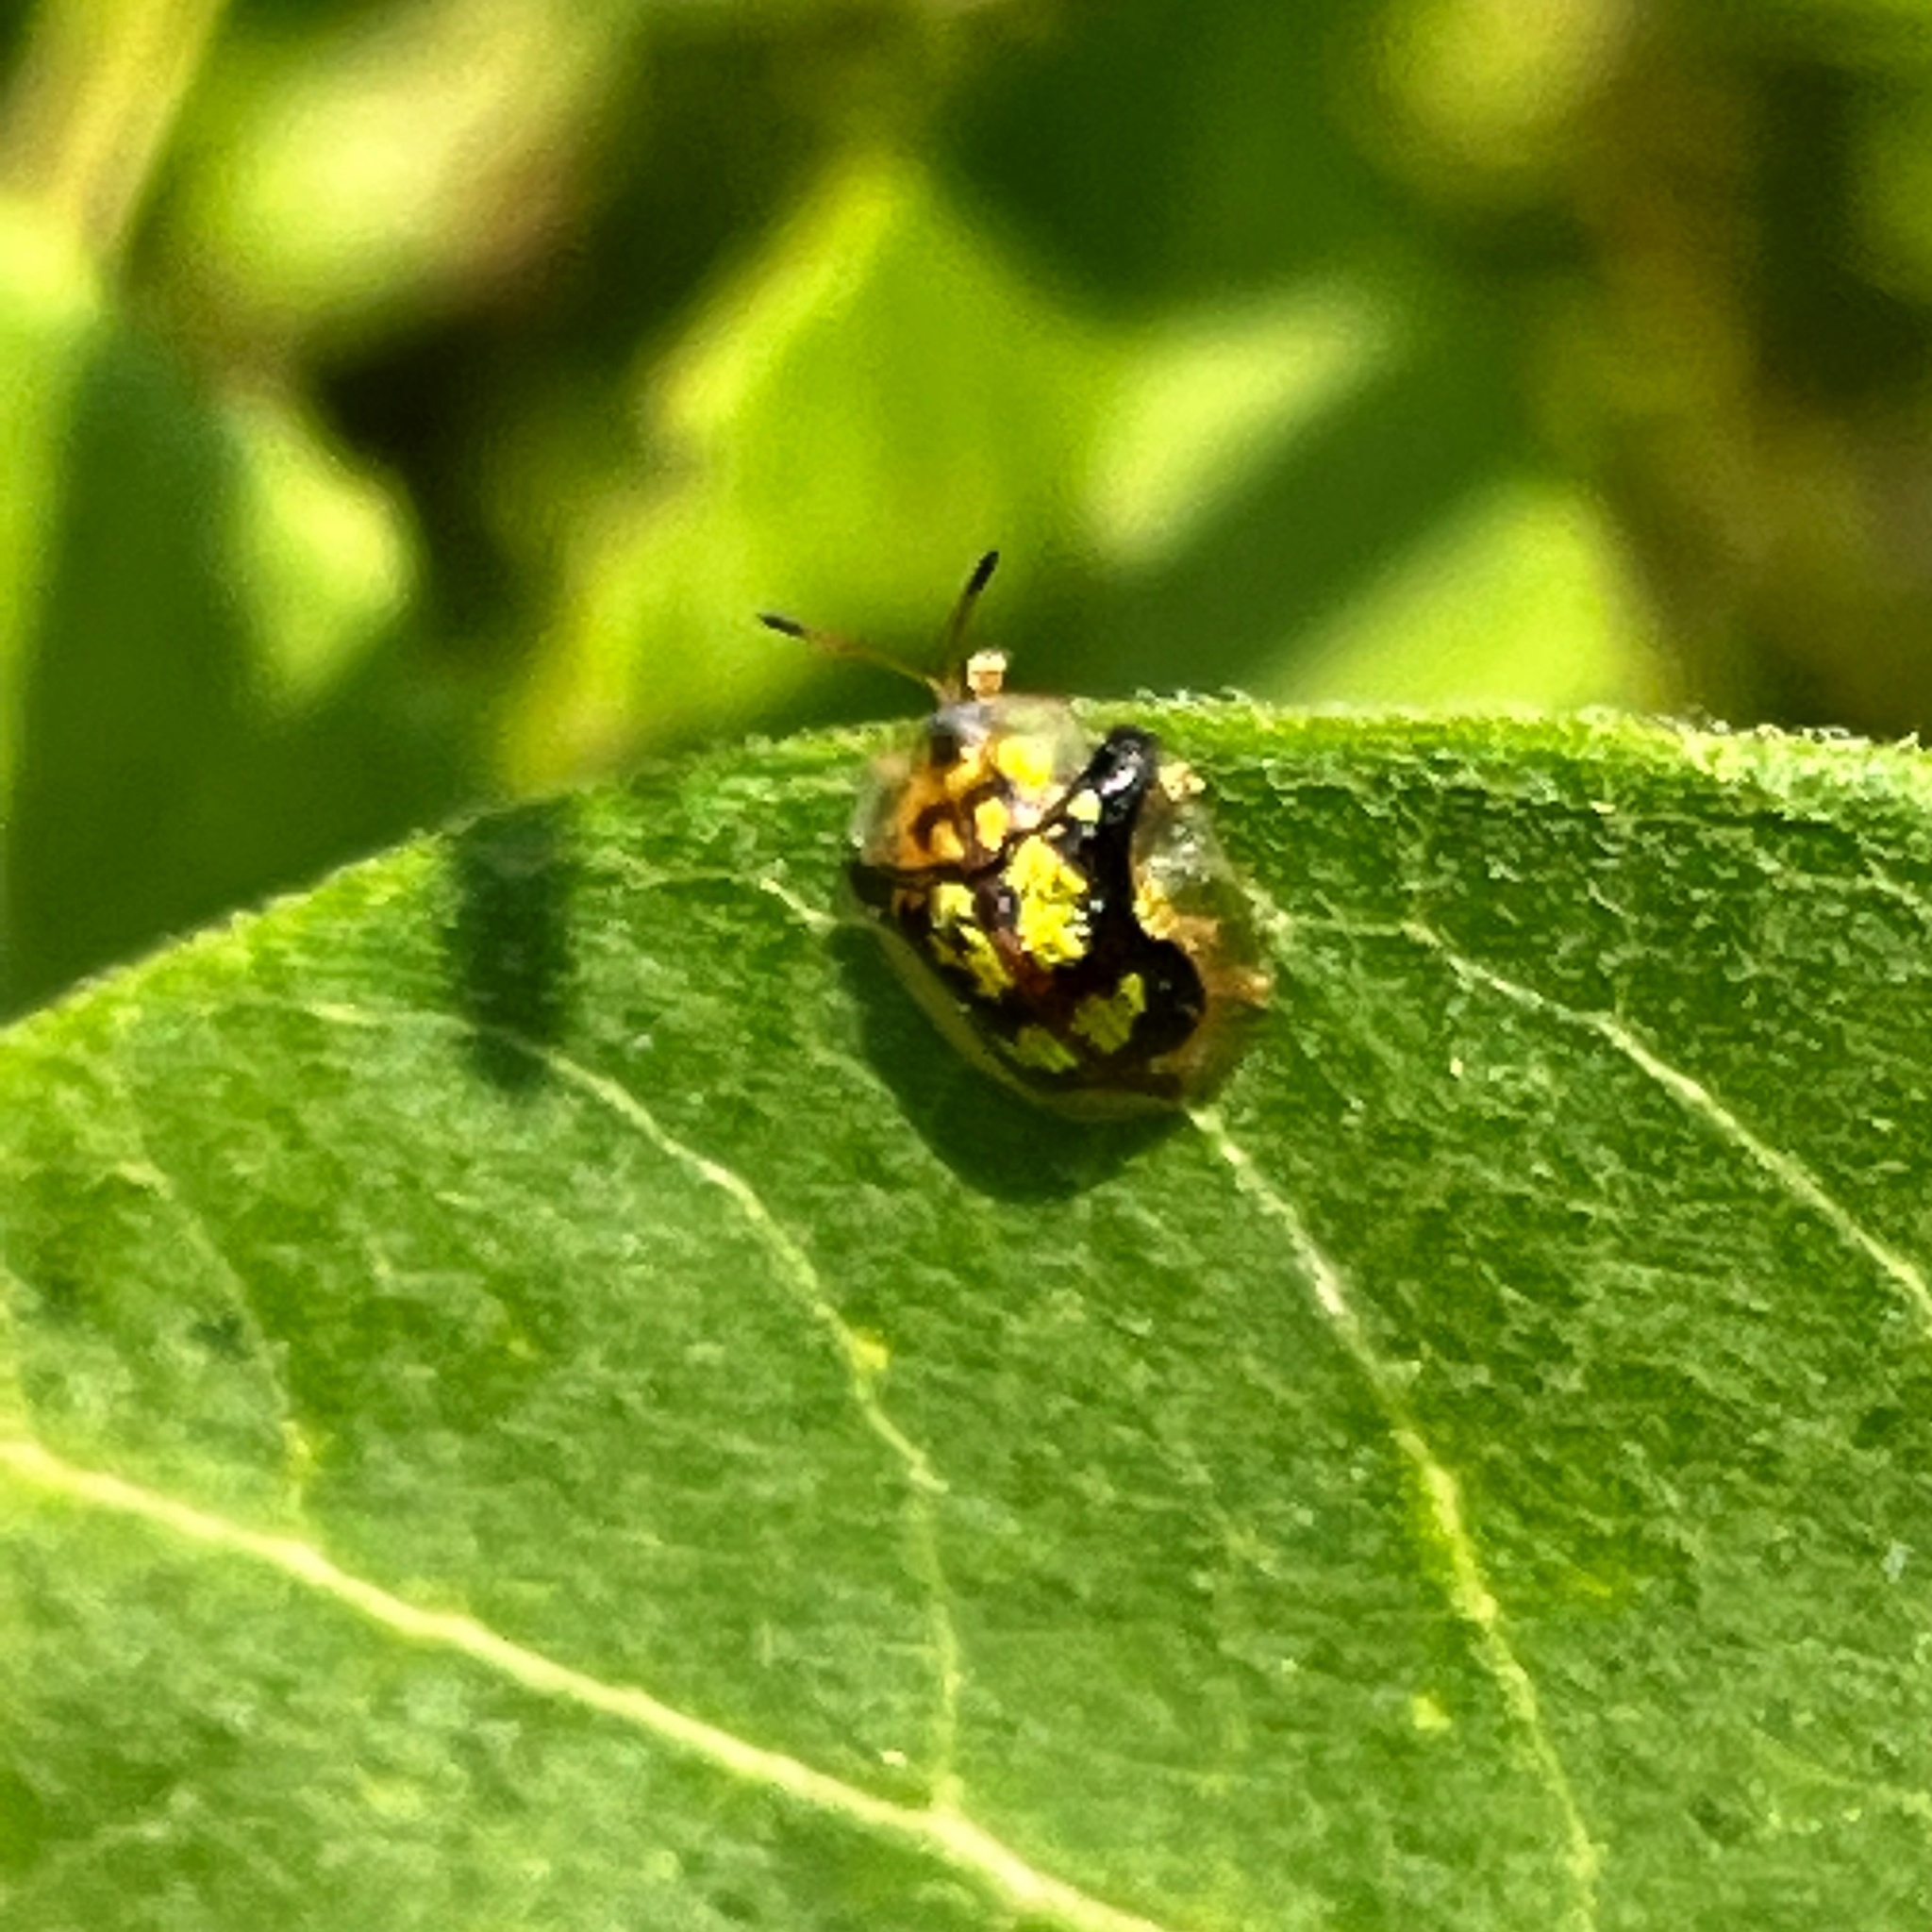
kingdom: Animalia
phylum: Arthropoda
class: Insecta
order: Coleoptera
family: Chrysomelidae
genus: Deloyala
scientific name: Deloyala guttata
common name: Mottled tortoise beetle
